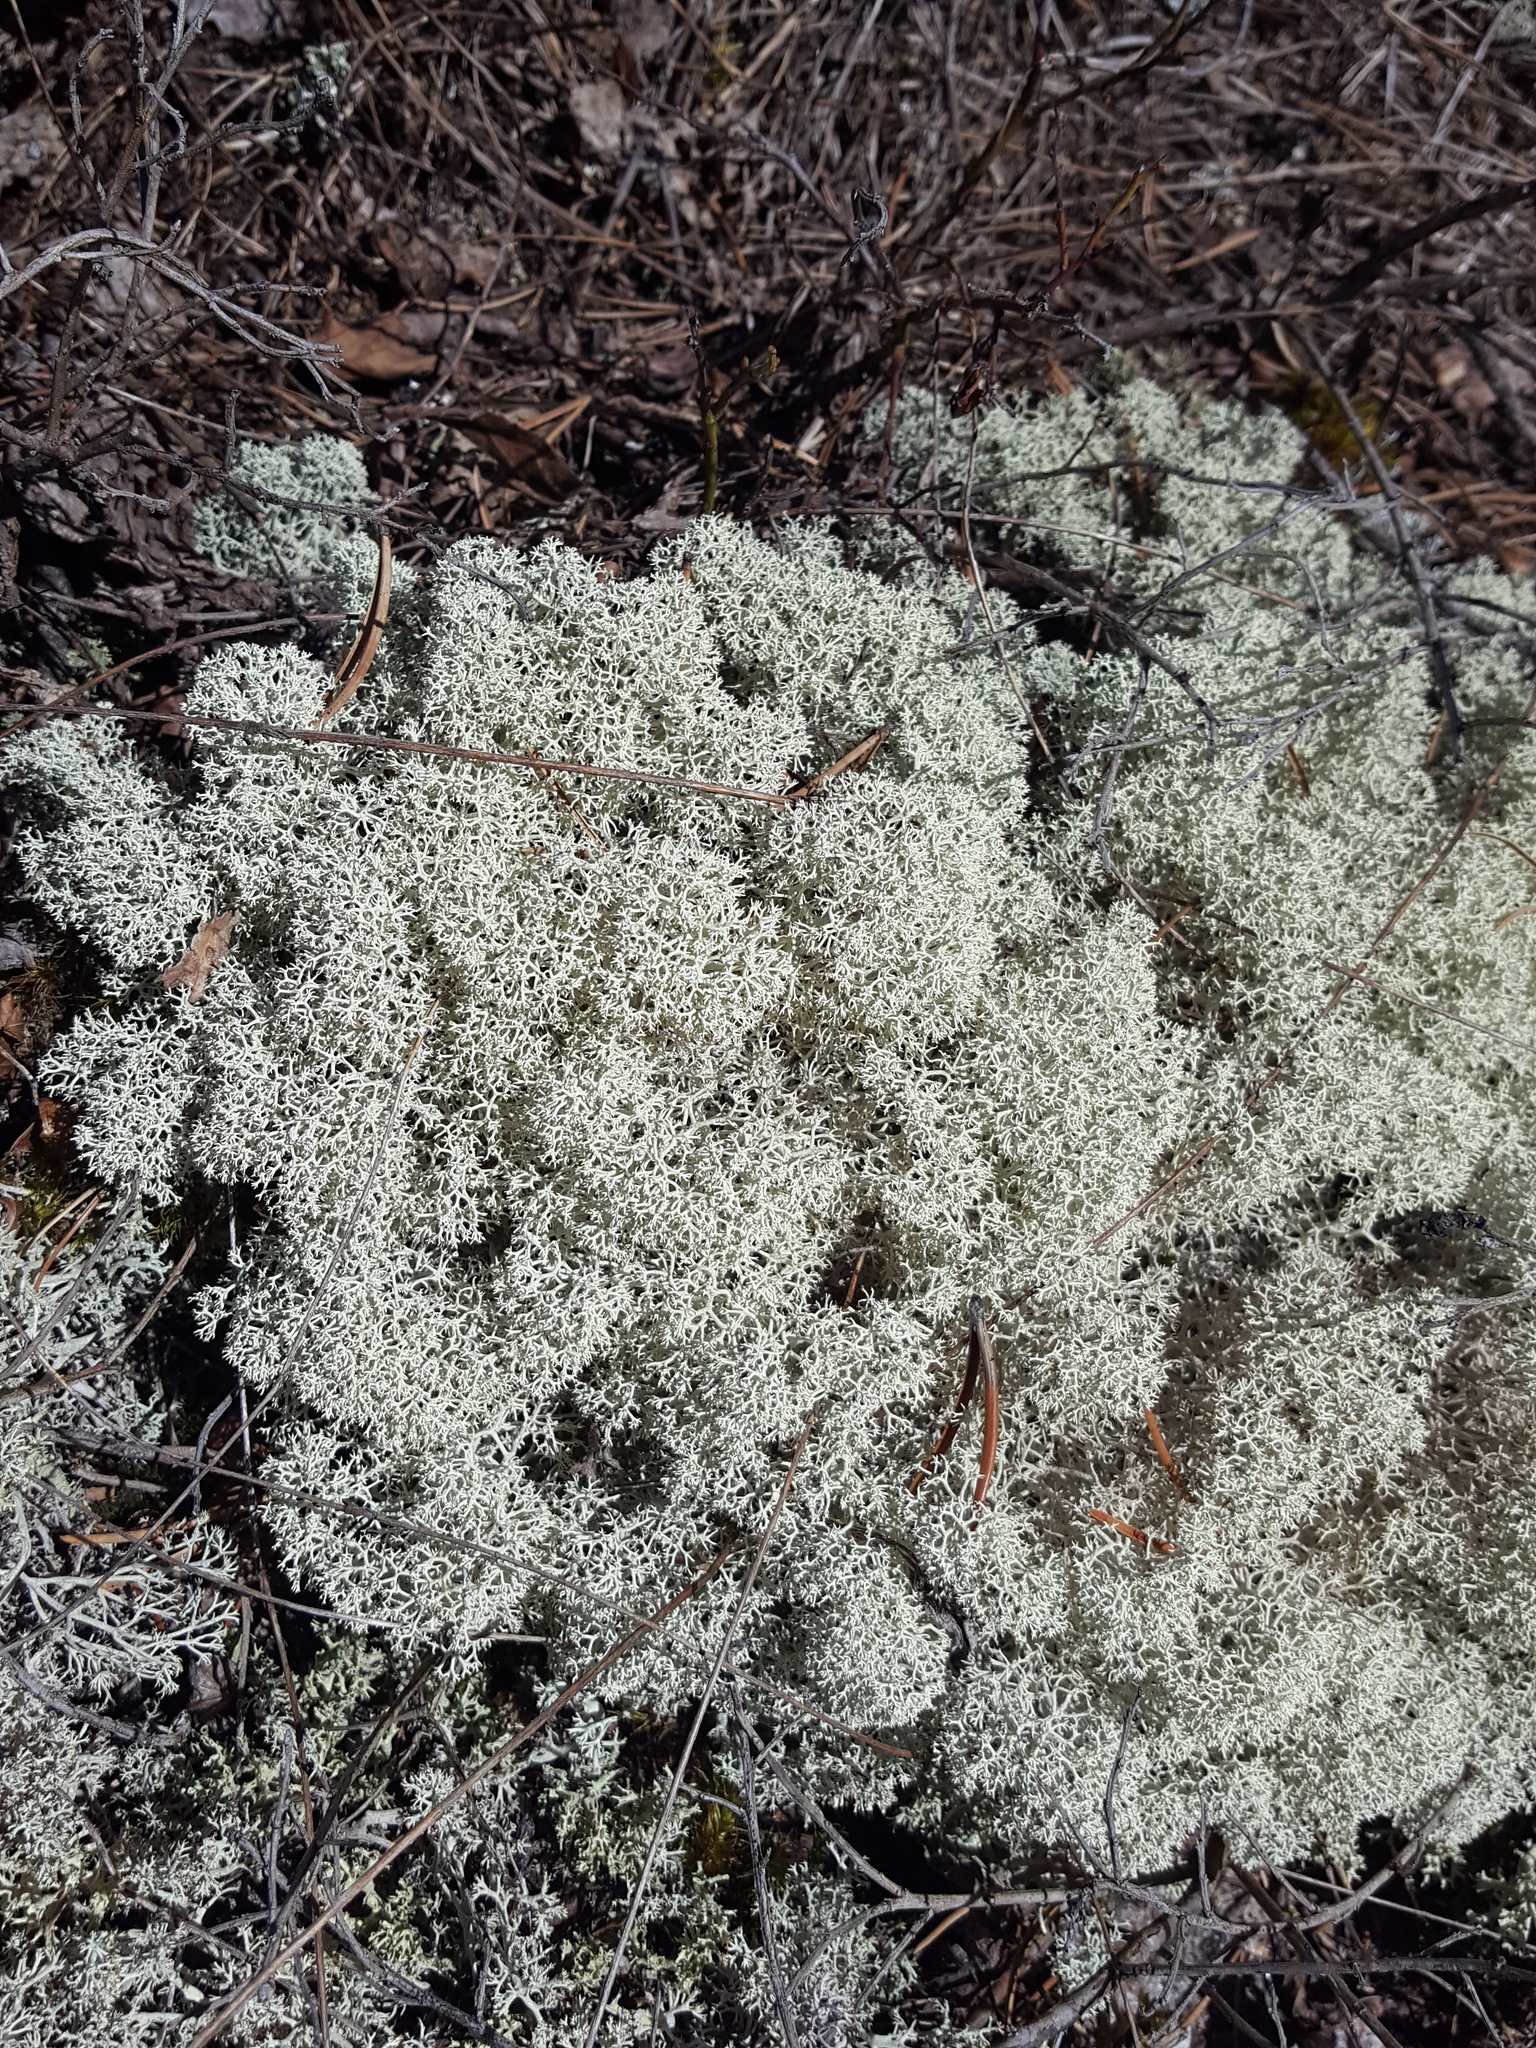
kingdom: Fungi
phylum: Ascomycota
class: Lecanoromycetes
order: Lecanorales
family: Cladoniaceae
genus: Cladonia
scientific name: Cladonia stellaris
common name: Star-tipped reindeer lichen
